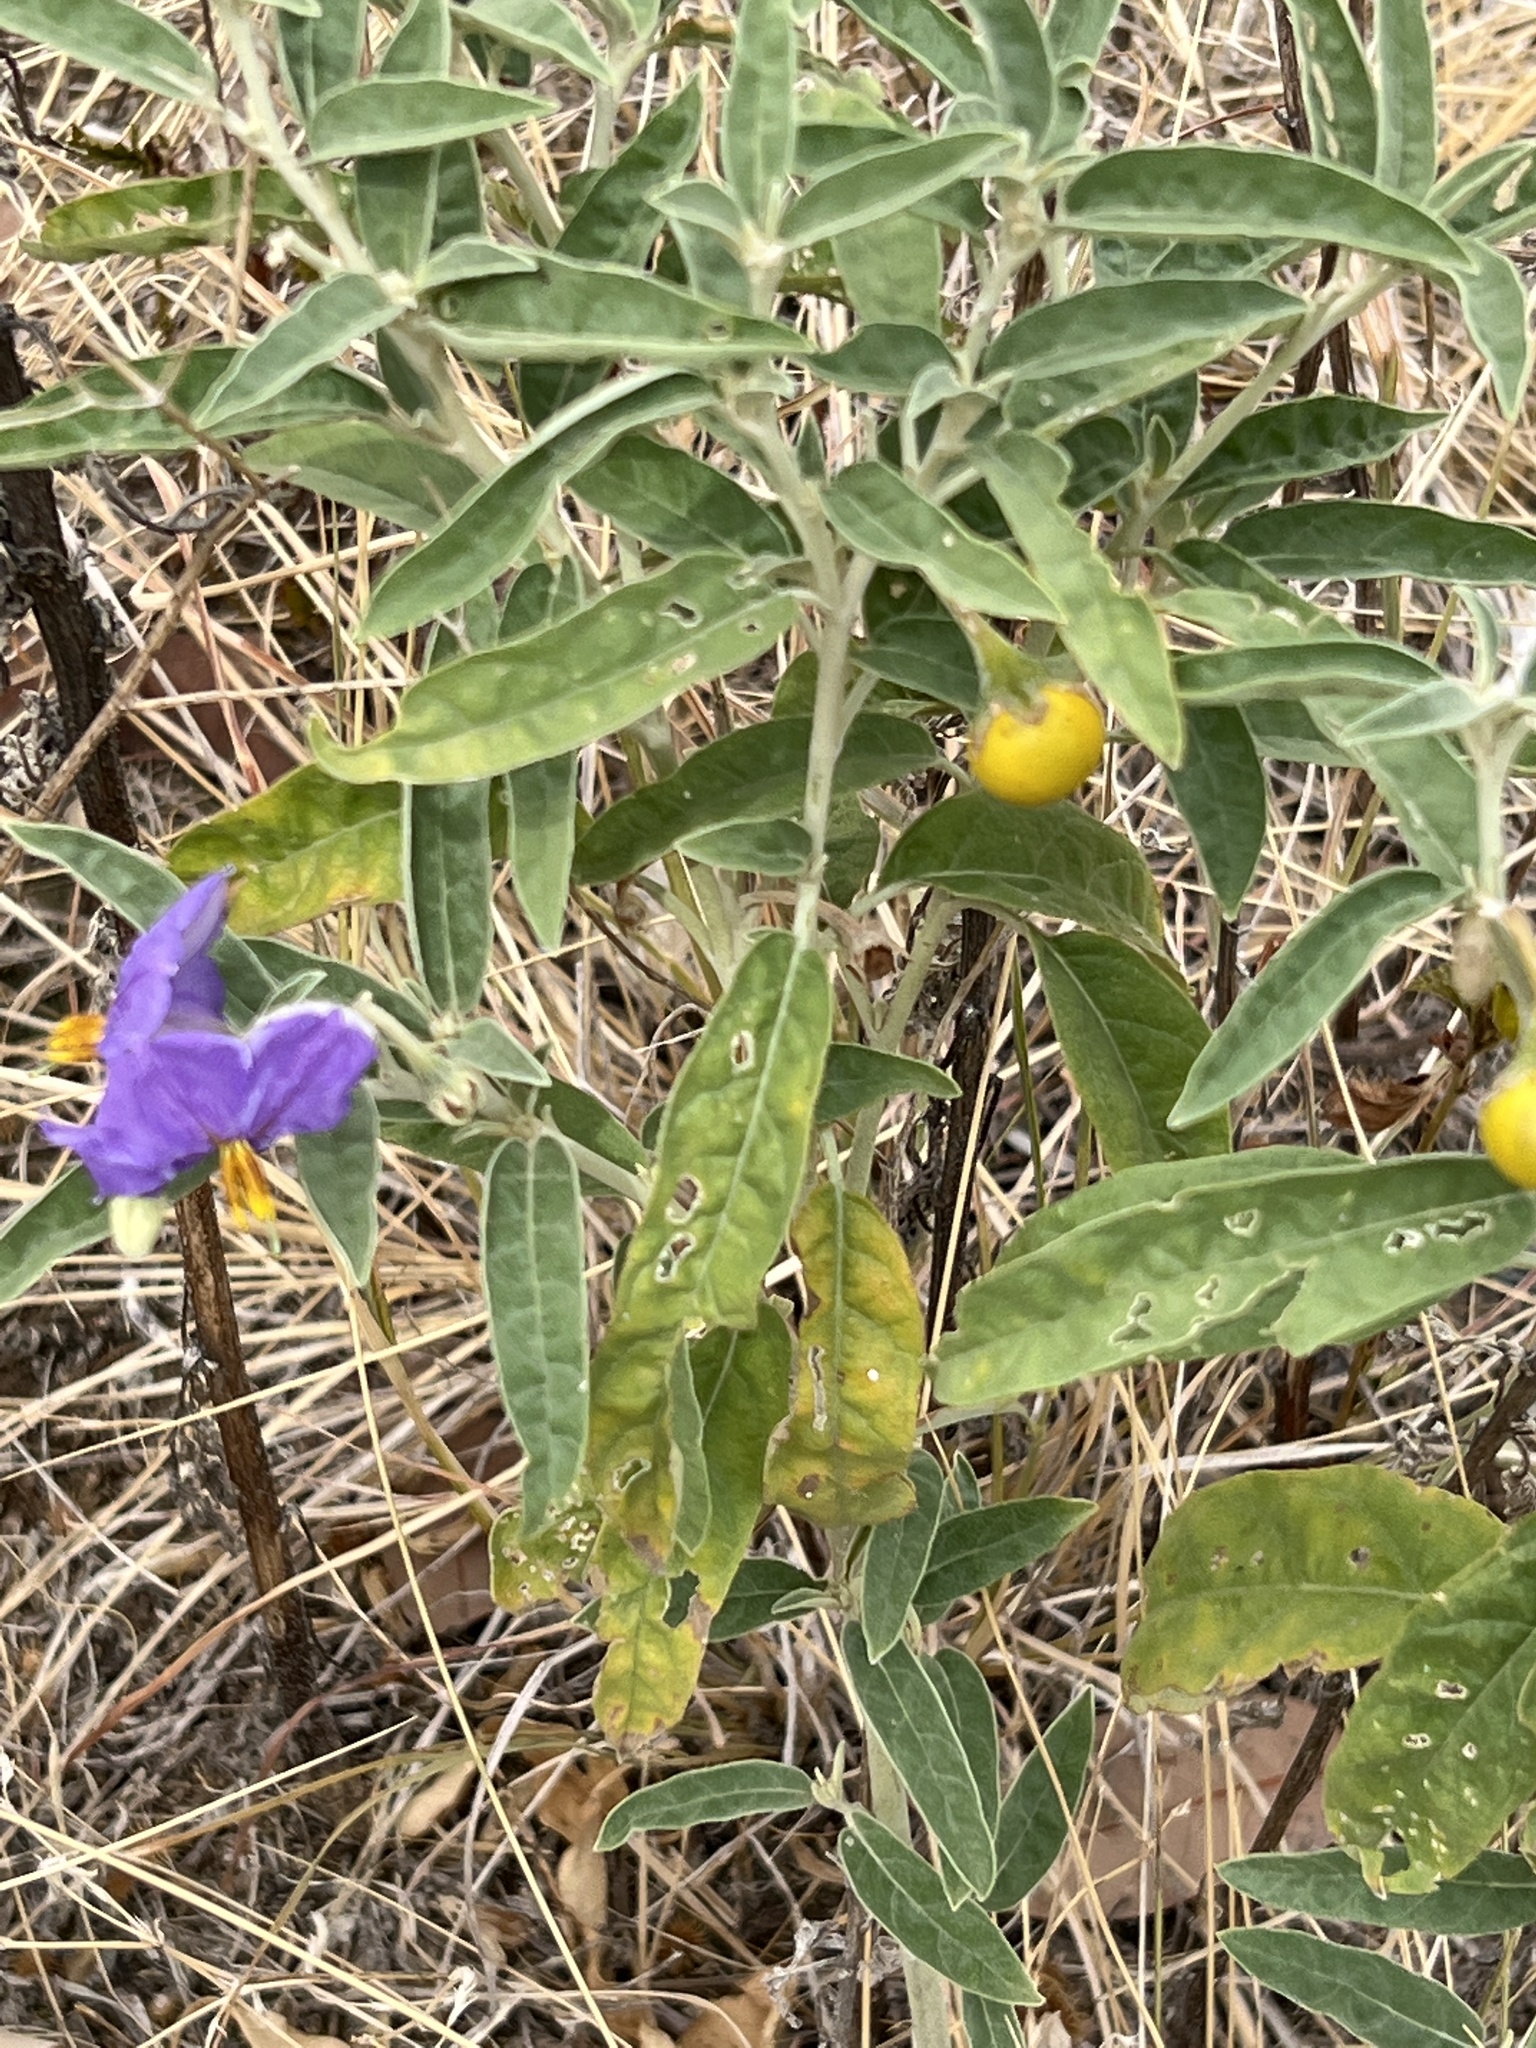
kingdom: Plantae
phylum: Tracheophyta
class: Magnoliopsida
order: Solanales
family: Solanaceae
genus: Solanum
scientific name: Solanum elaeagnifolium
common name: Silverleaf nightshade
